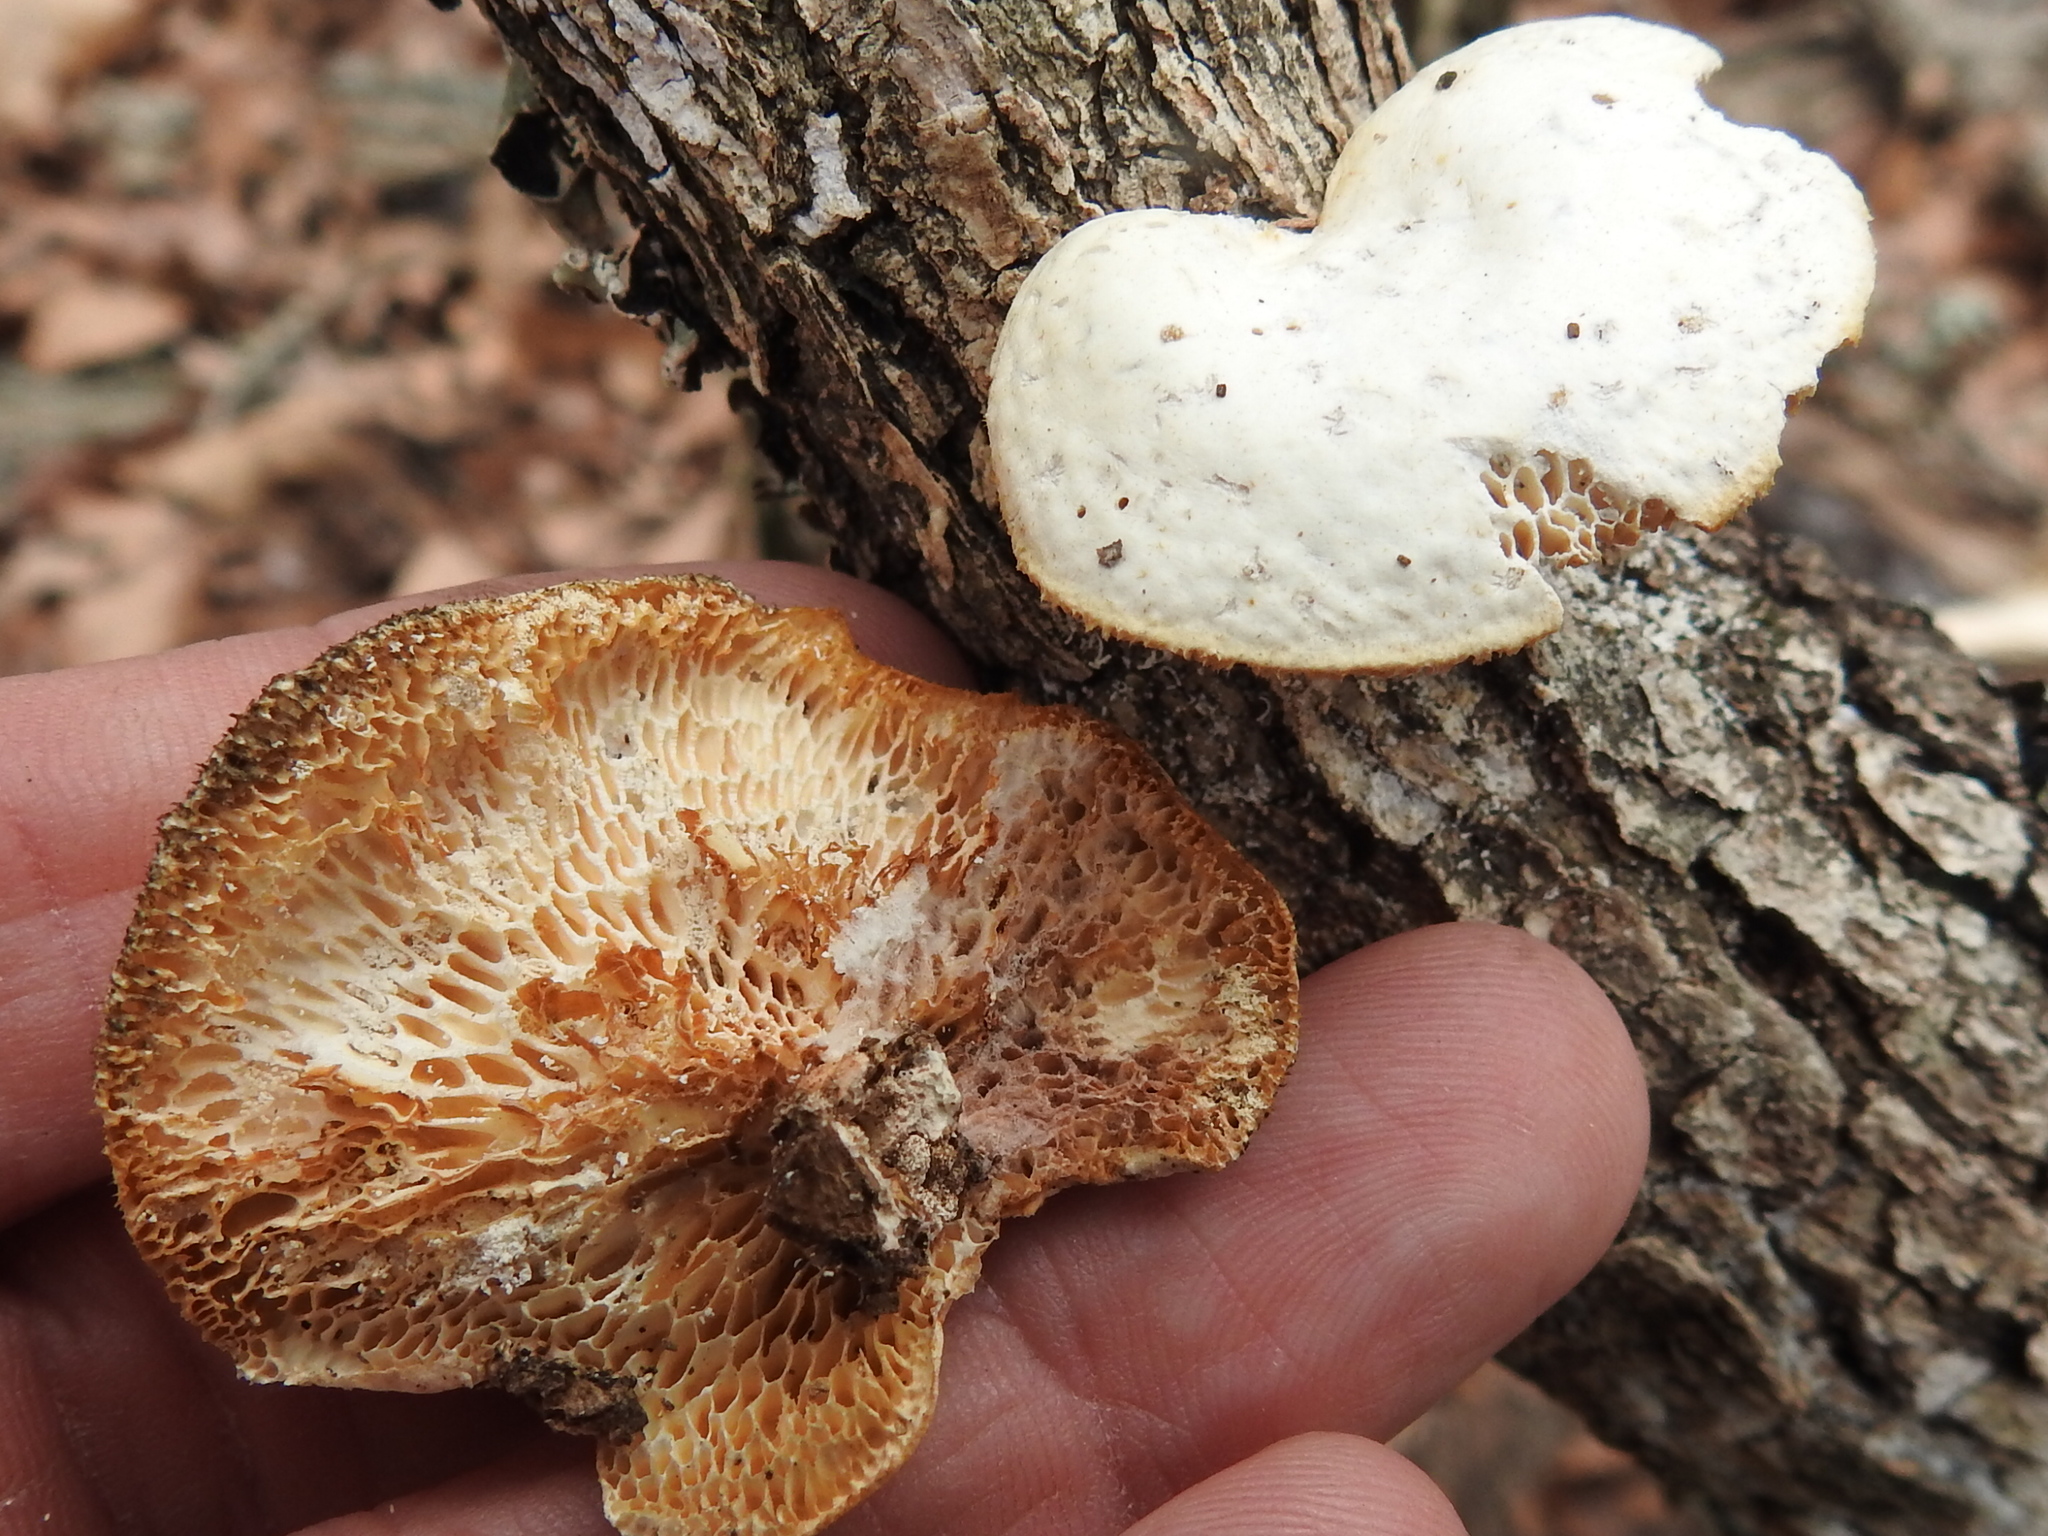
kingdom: Fungi
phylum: Basidiomycota
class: Agaricomycetes
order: Polyporales
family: Polyporaceae
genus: Neofavolus
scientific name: Neofavolus alveolaris
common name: Hexagonal-pored polypore
